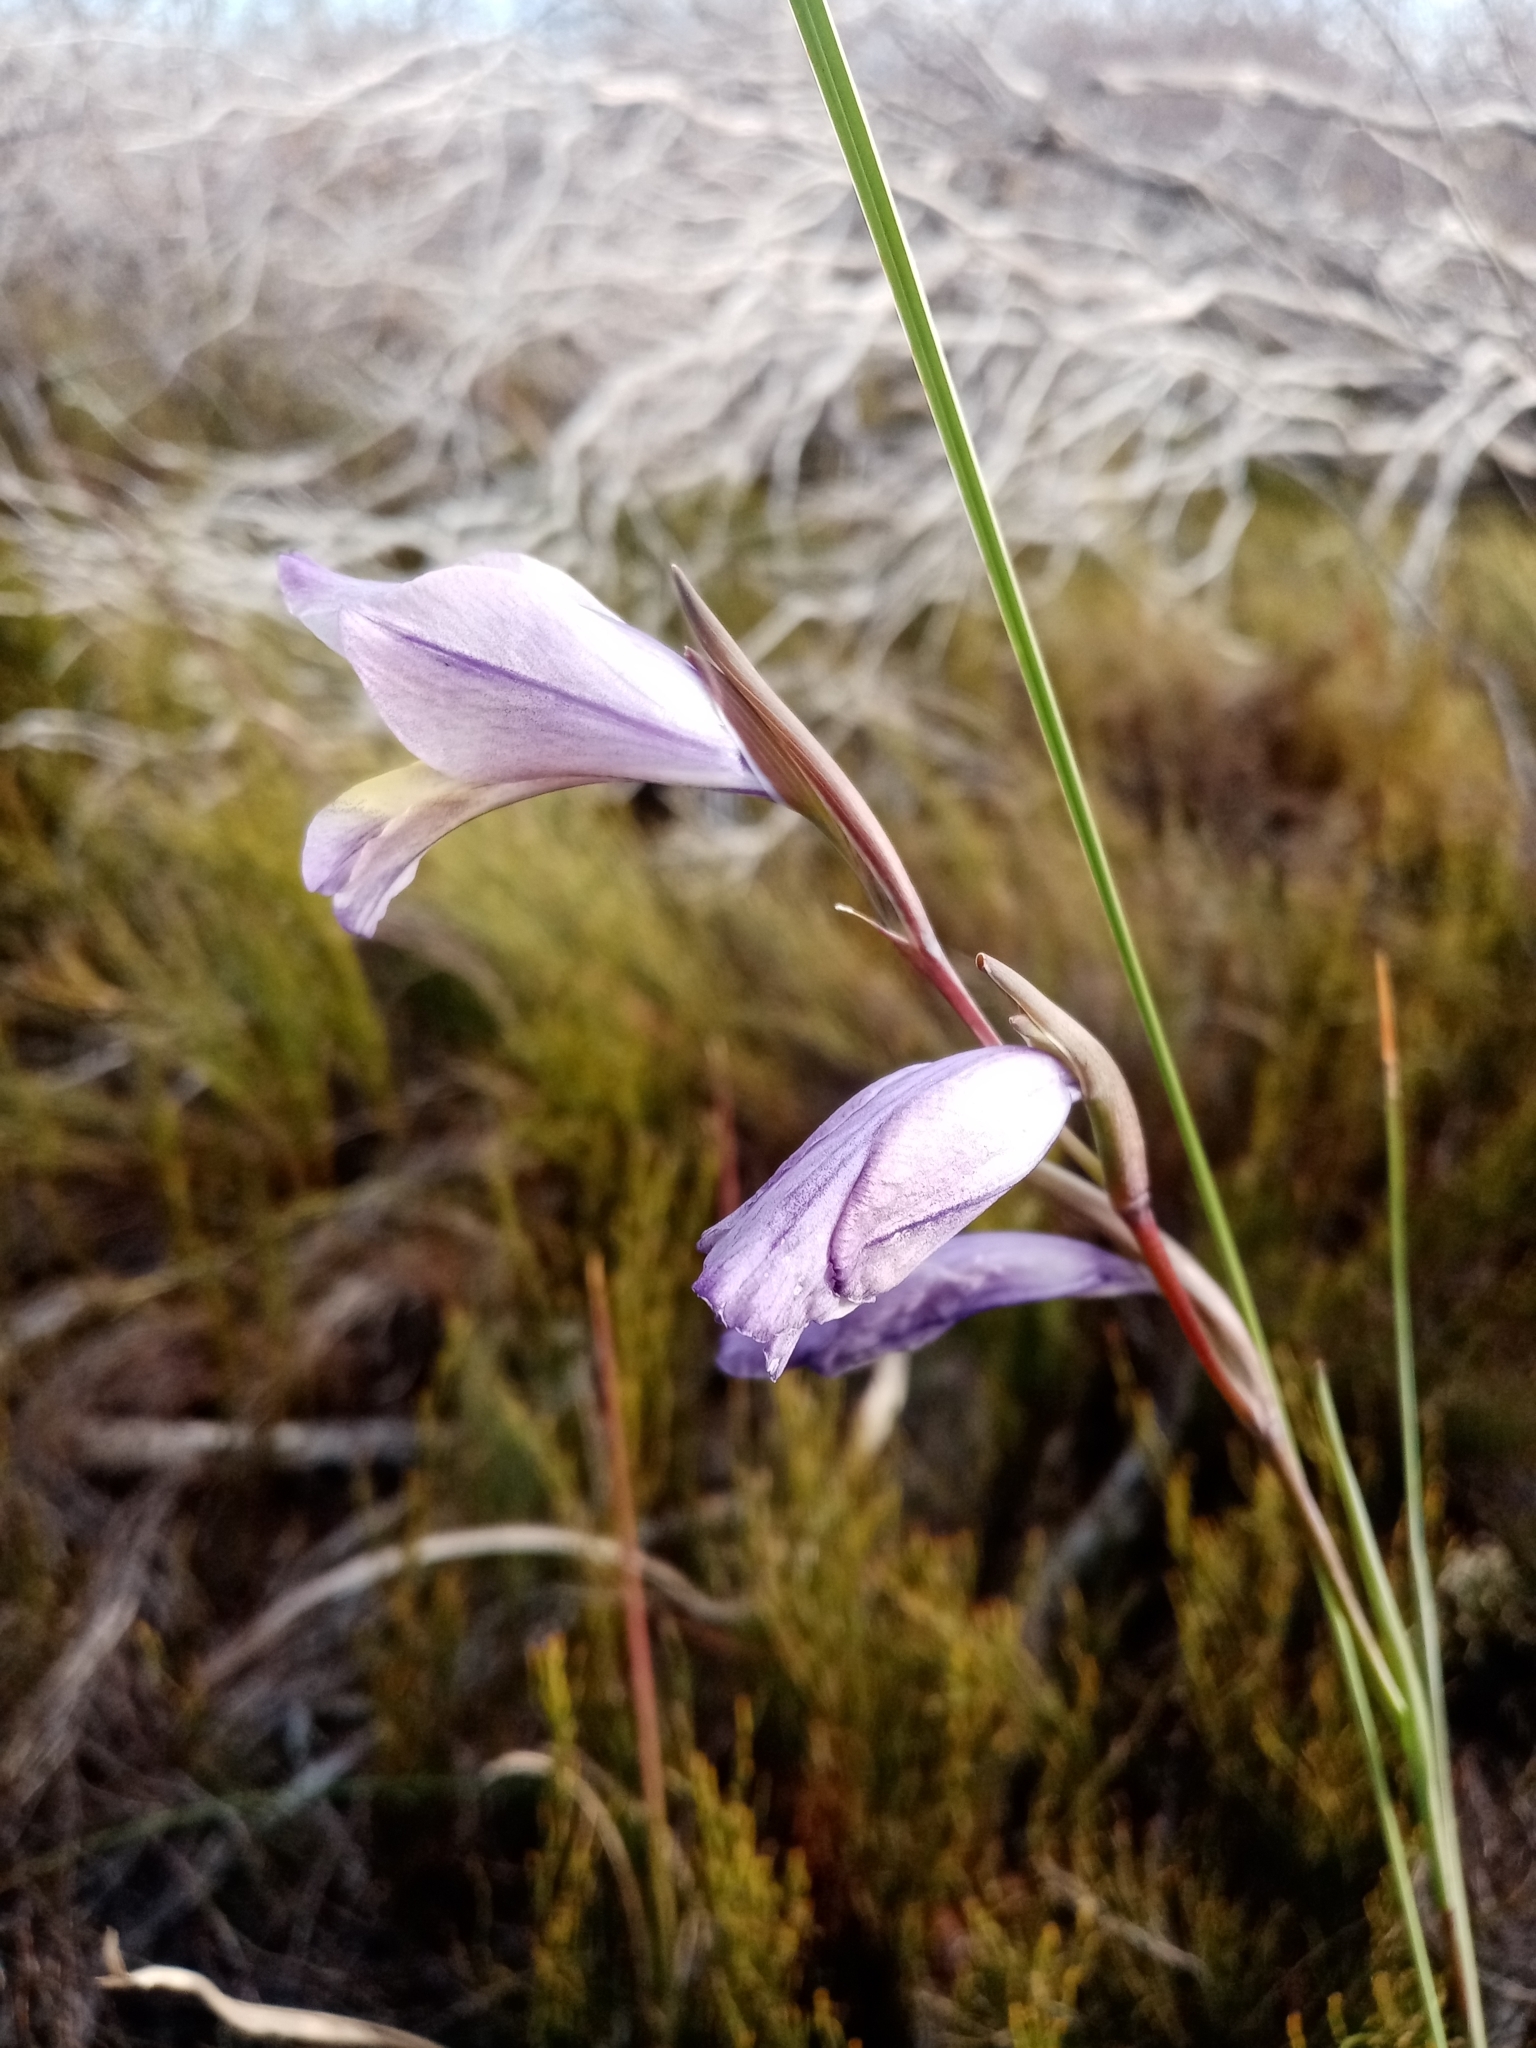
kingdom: Plantae
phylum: Tracheophyta
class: Liliopsida
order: Asparagales
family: Iridaceae
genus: Gladiolus
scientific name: Gladiolus carinatus
